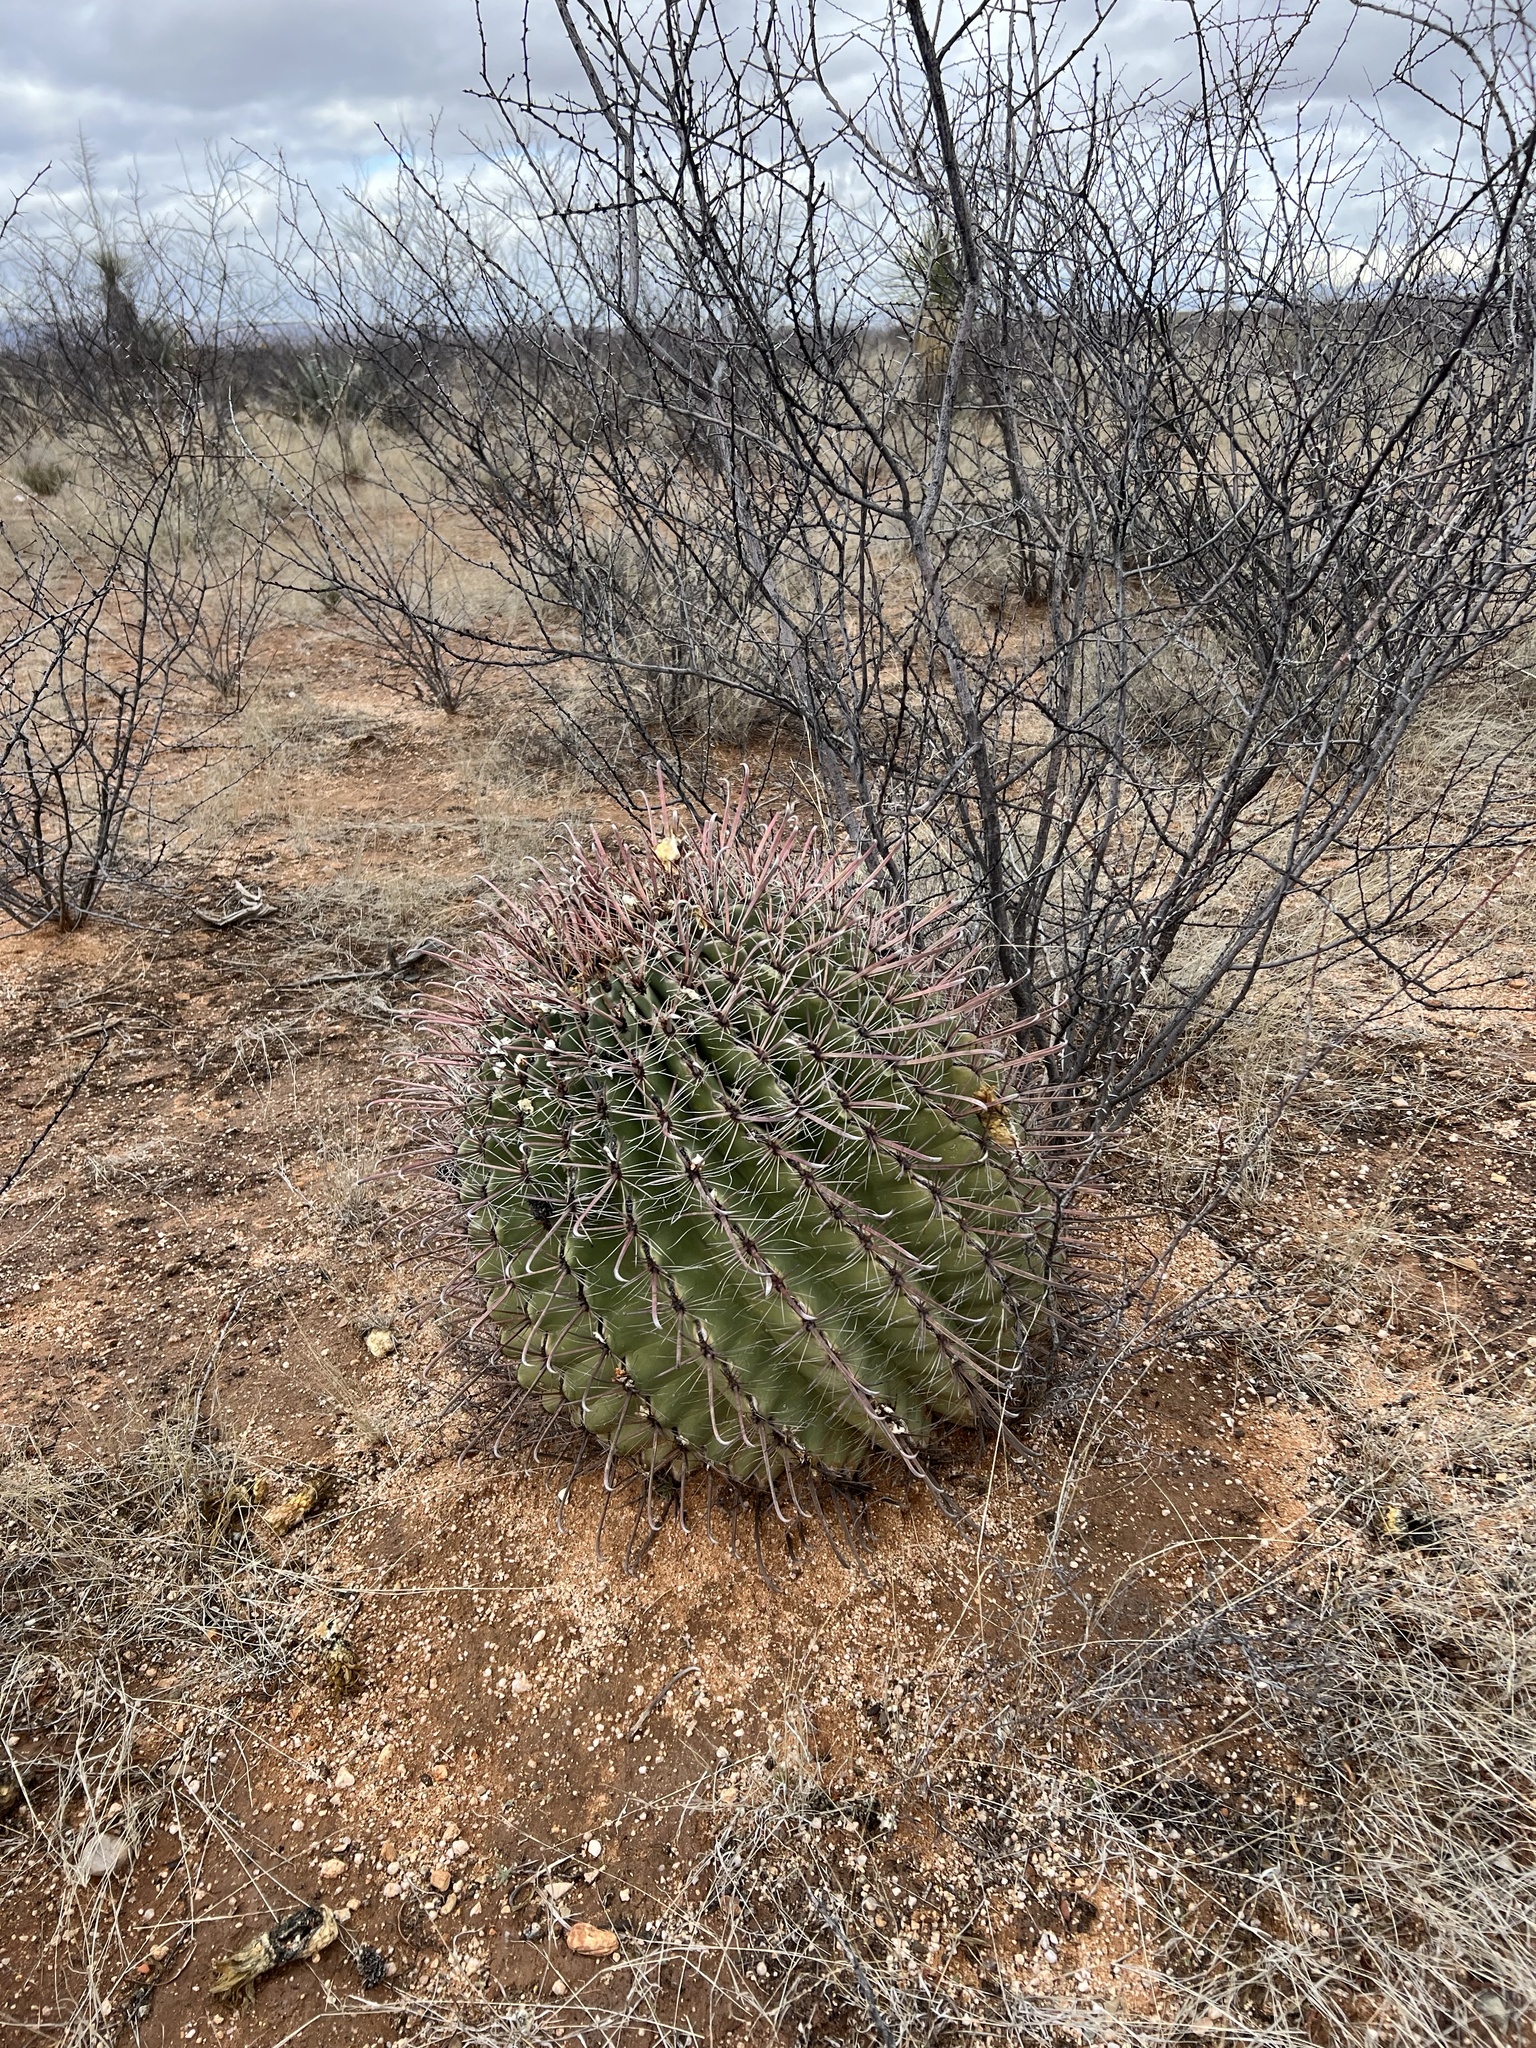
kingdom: Plantae
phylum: Tracheophyta
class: Magnoliopsida
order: Caryophyllales
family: Cactaceae
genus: Ferocactus
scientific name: Ferocactus wislizeni
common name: Candy barrel cactus
